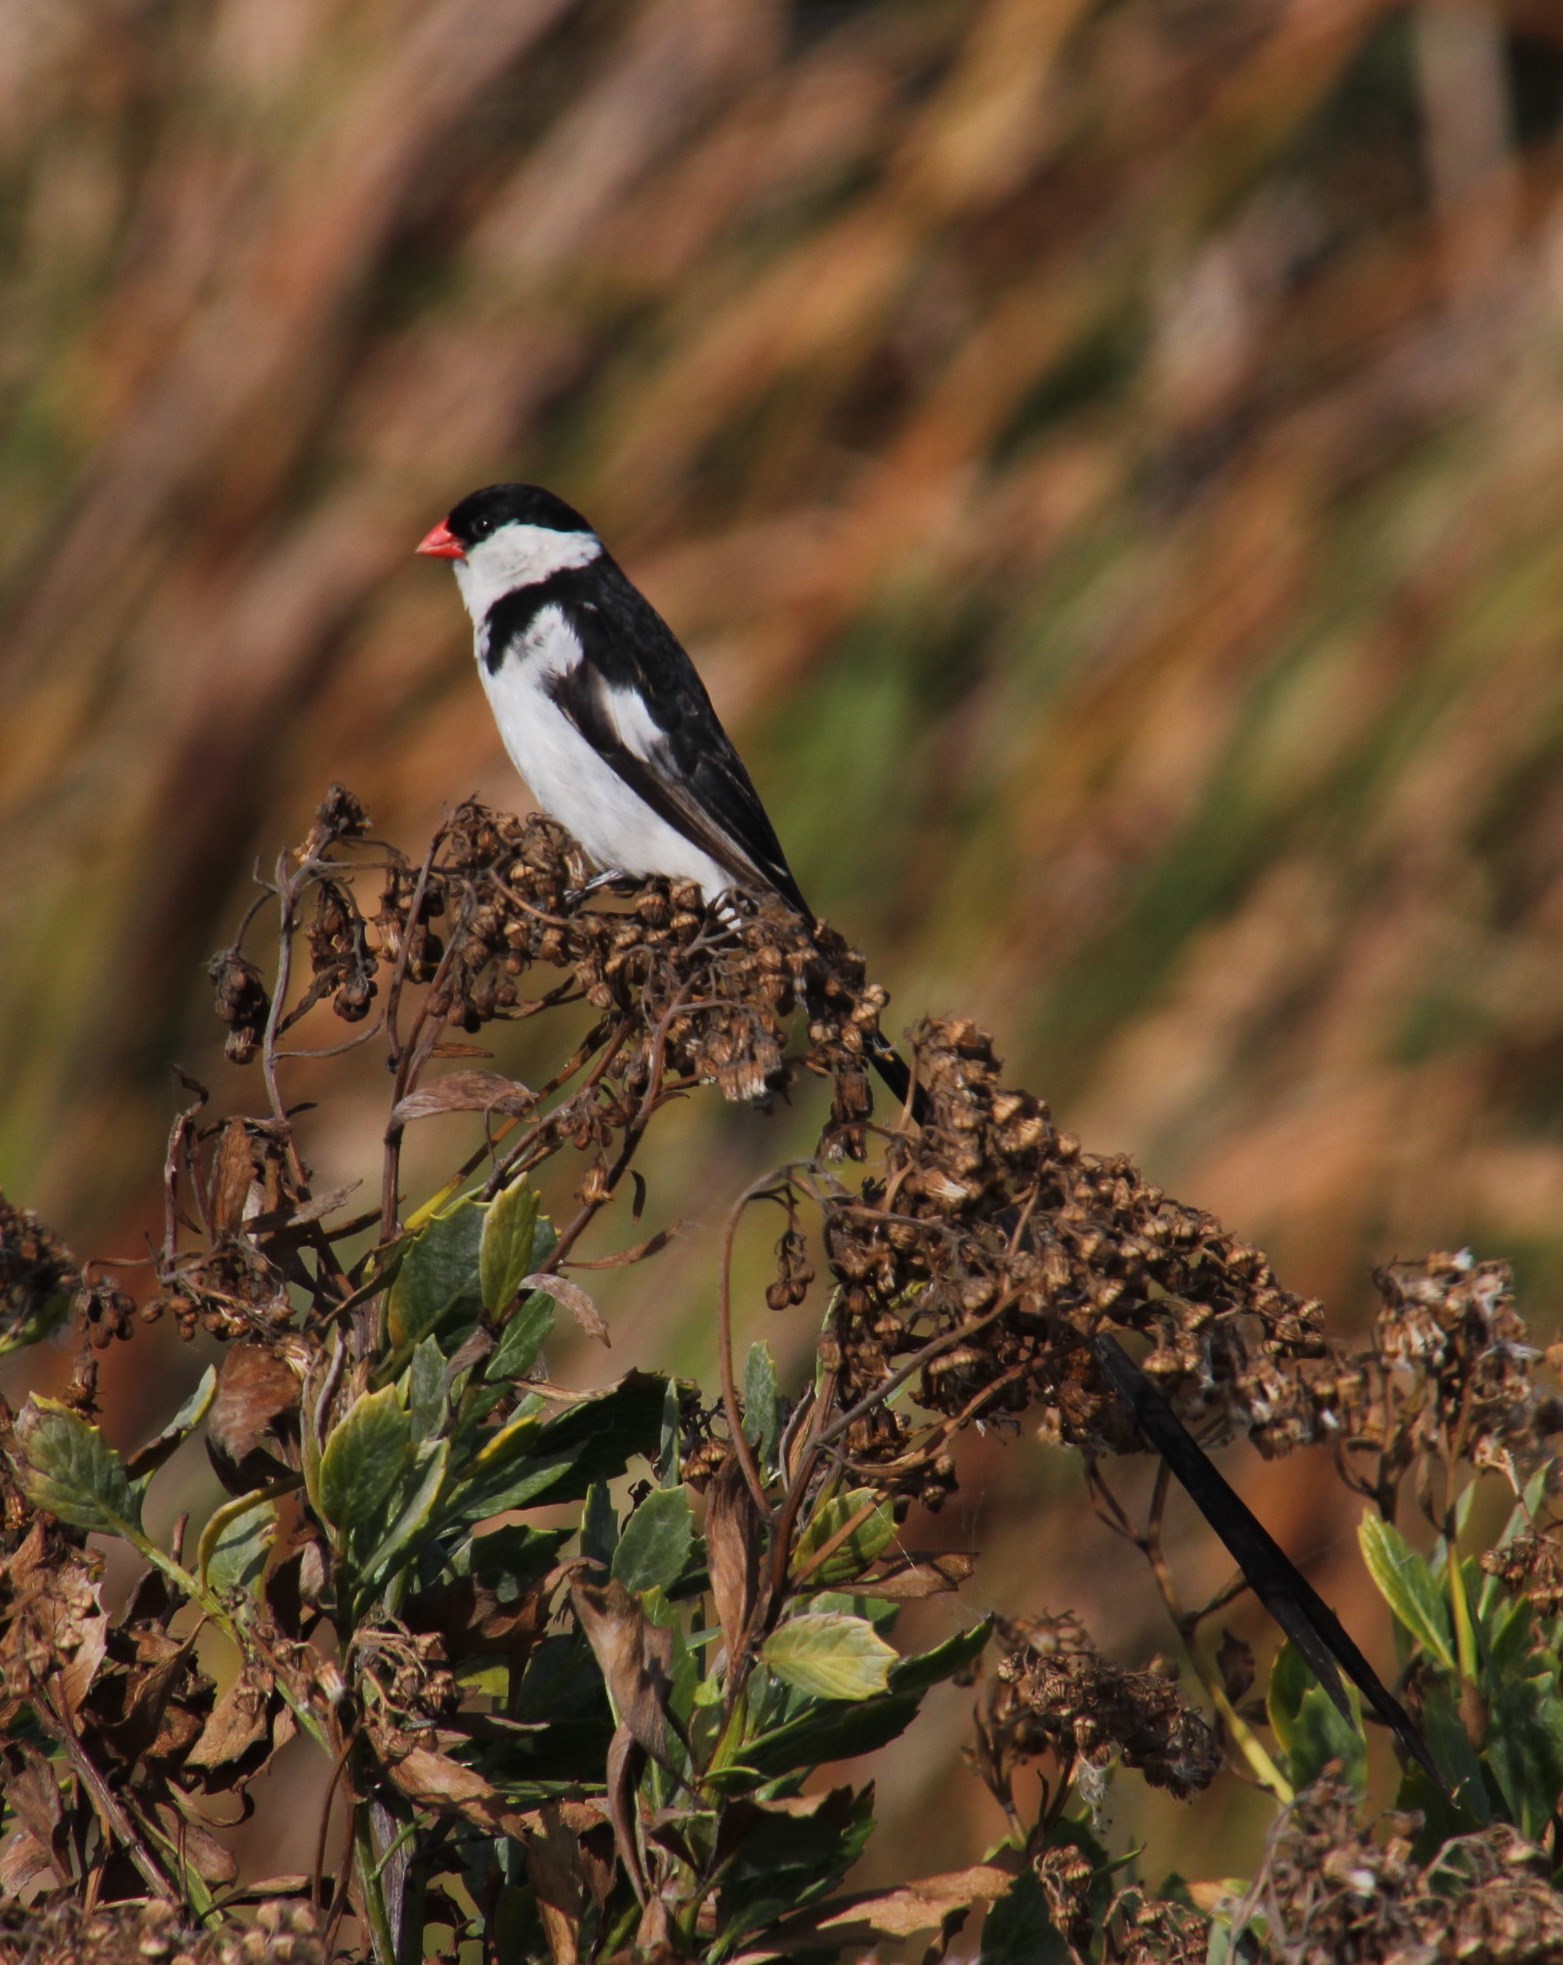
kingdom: Animalia
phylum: Chordata
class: Aves
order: Passeriformes
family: Viduidae
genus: Vidua
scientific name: Vidua macroura
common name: Pin-tailed whydah
